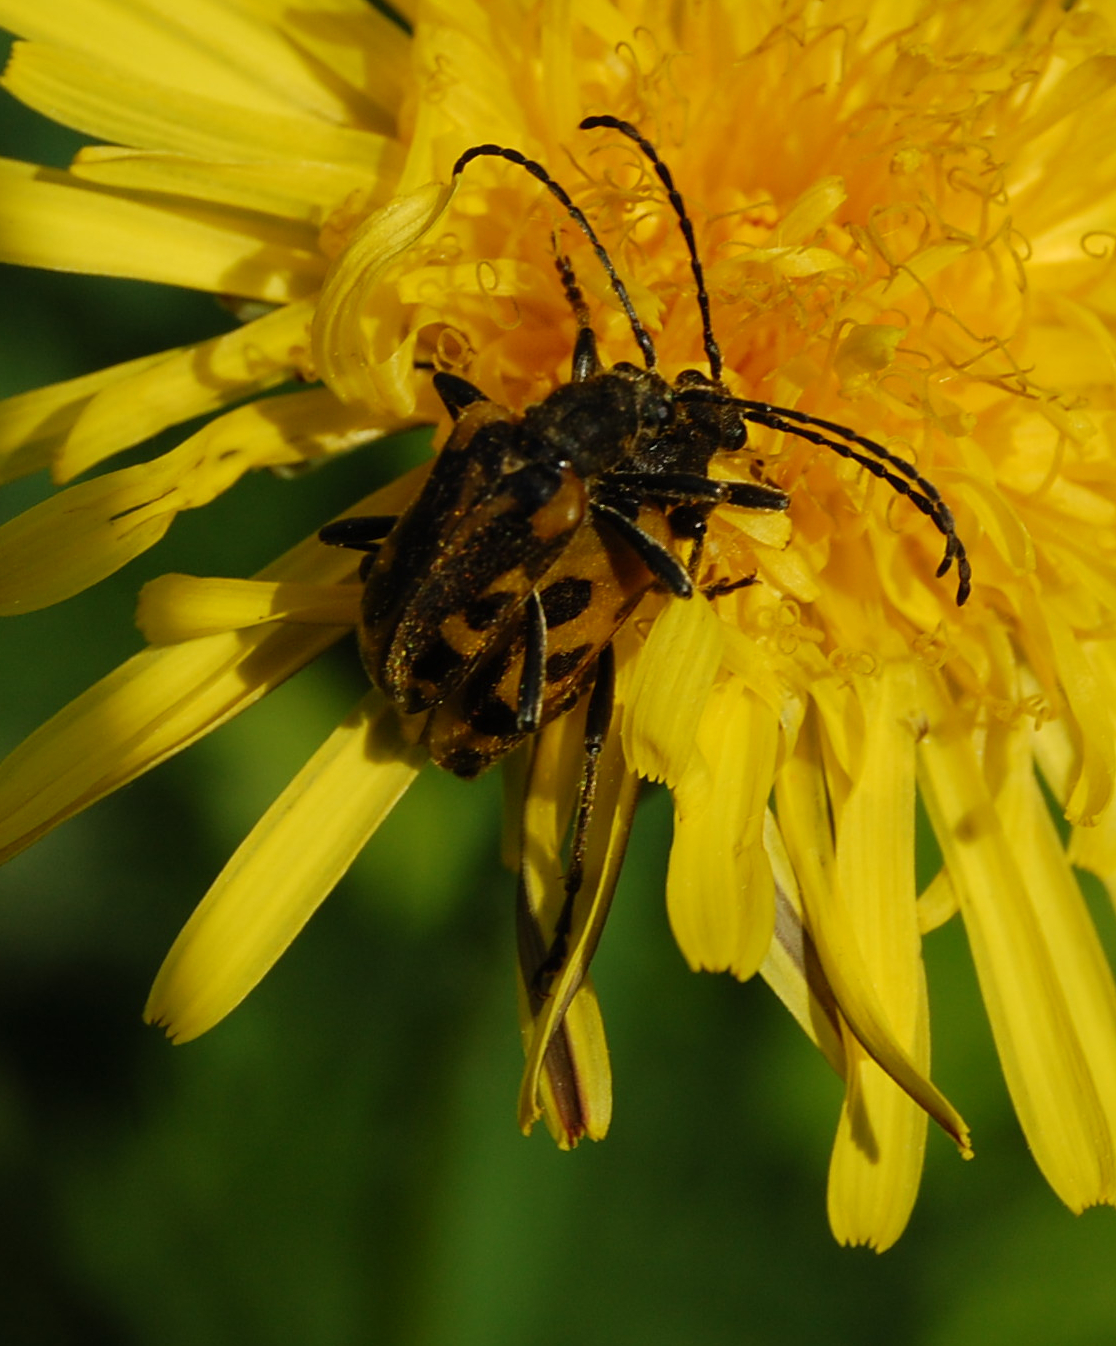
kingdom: Animalia
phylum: Arthropoda
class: Insecta
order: Coleoptera
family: Cerambycidae
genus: Brachyta
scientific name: Brachyta interrogationis
